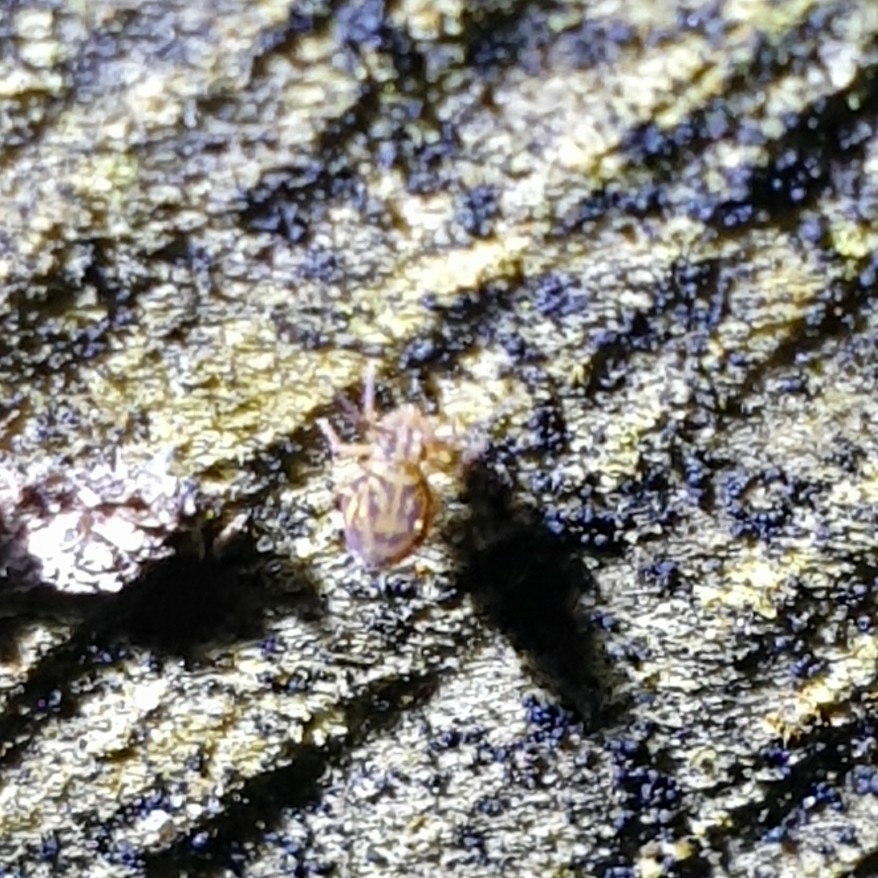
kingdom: Animalia
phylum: Arthropoda
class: Collembola
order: Symphypleona
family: Dicyrtomidae
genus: Dicyrtomina
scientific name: Dicyrtomina ornata
